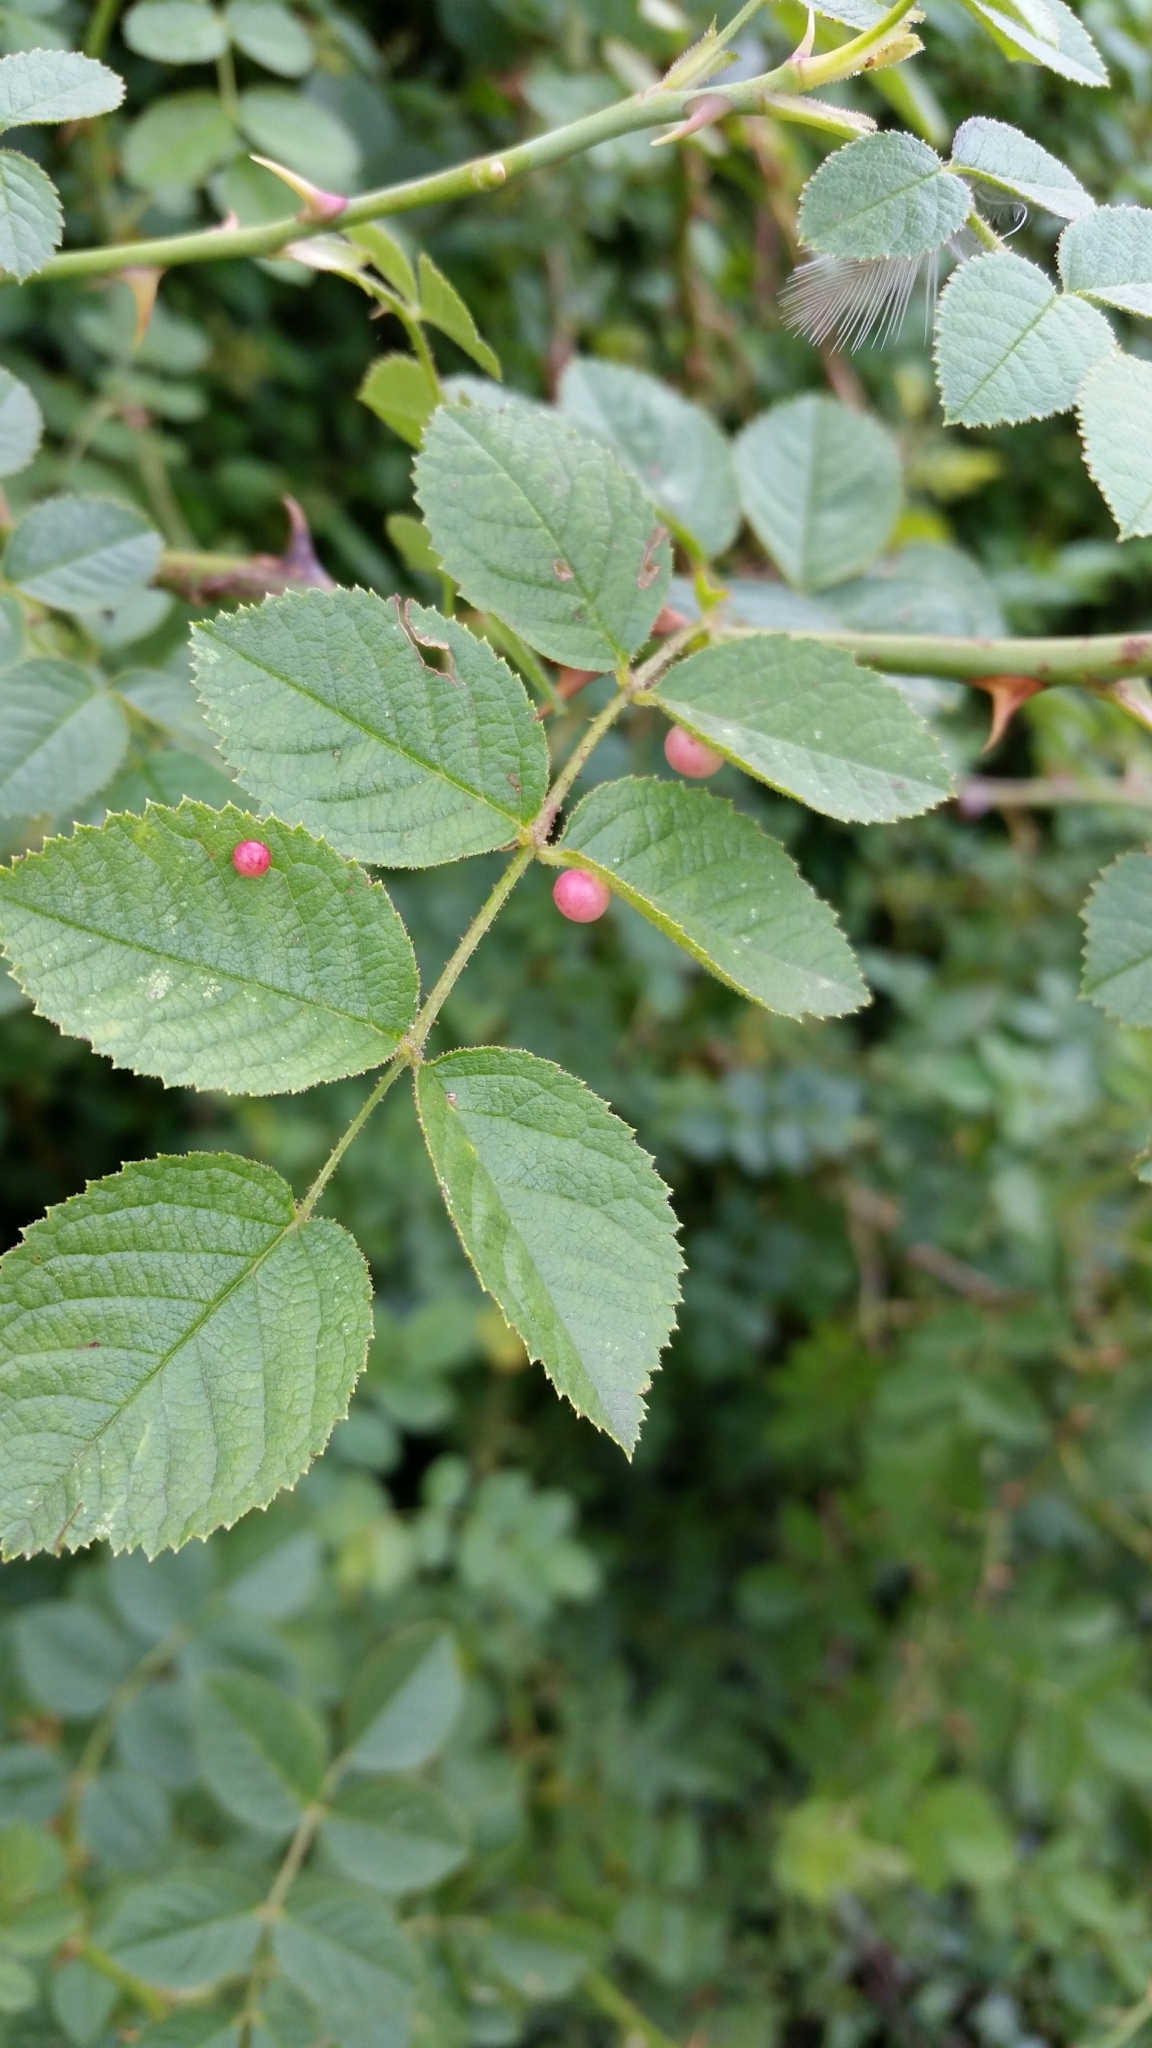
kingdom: Animalia
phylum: Arthropoda
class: Insecta
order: Hymenoptera
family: Cynipidae
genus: Diplolepis
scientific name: Diplolepis eglanteriae
